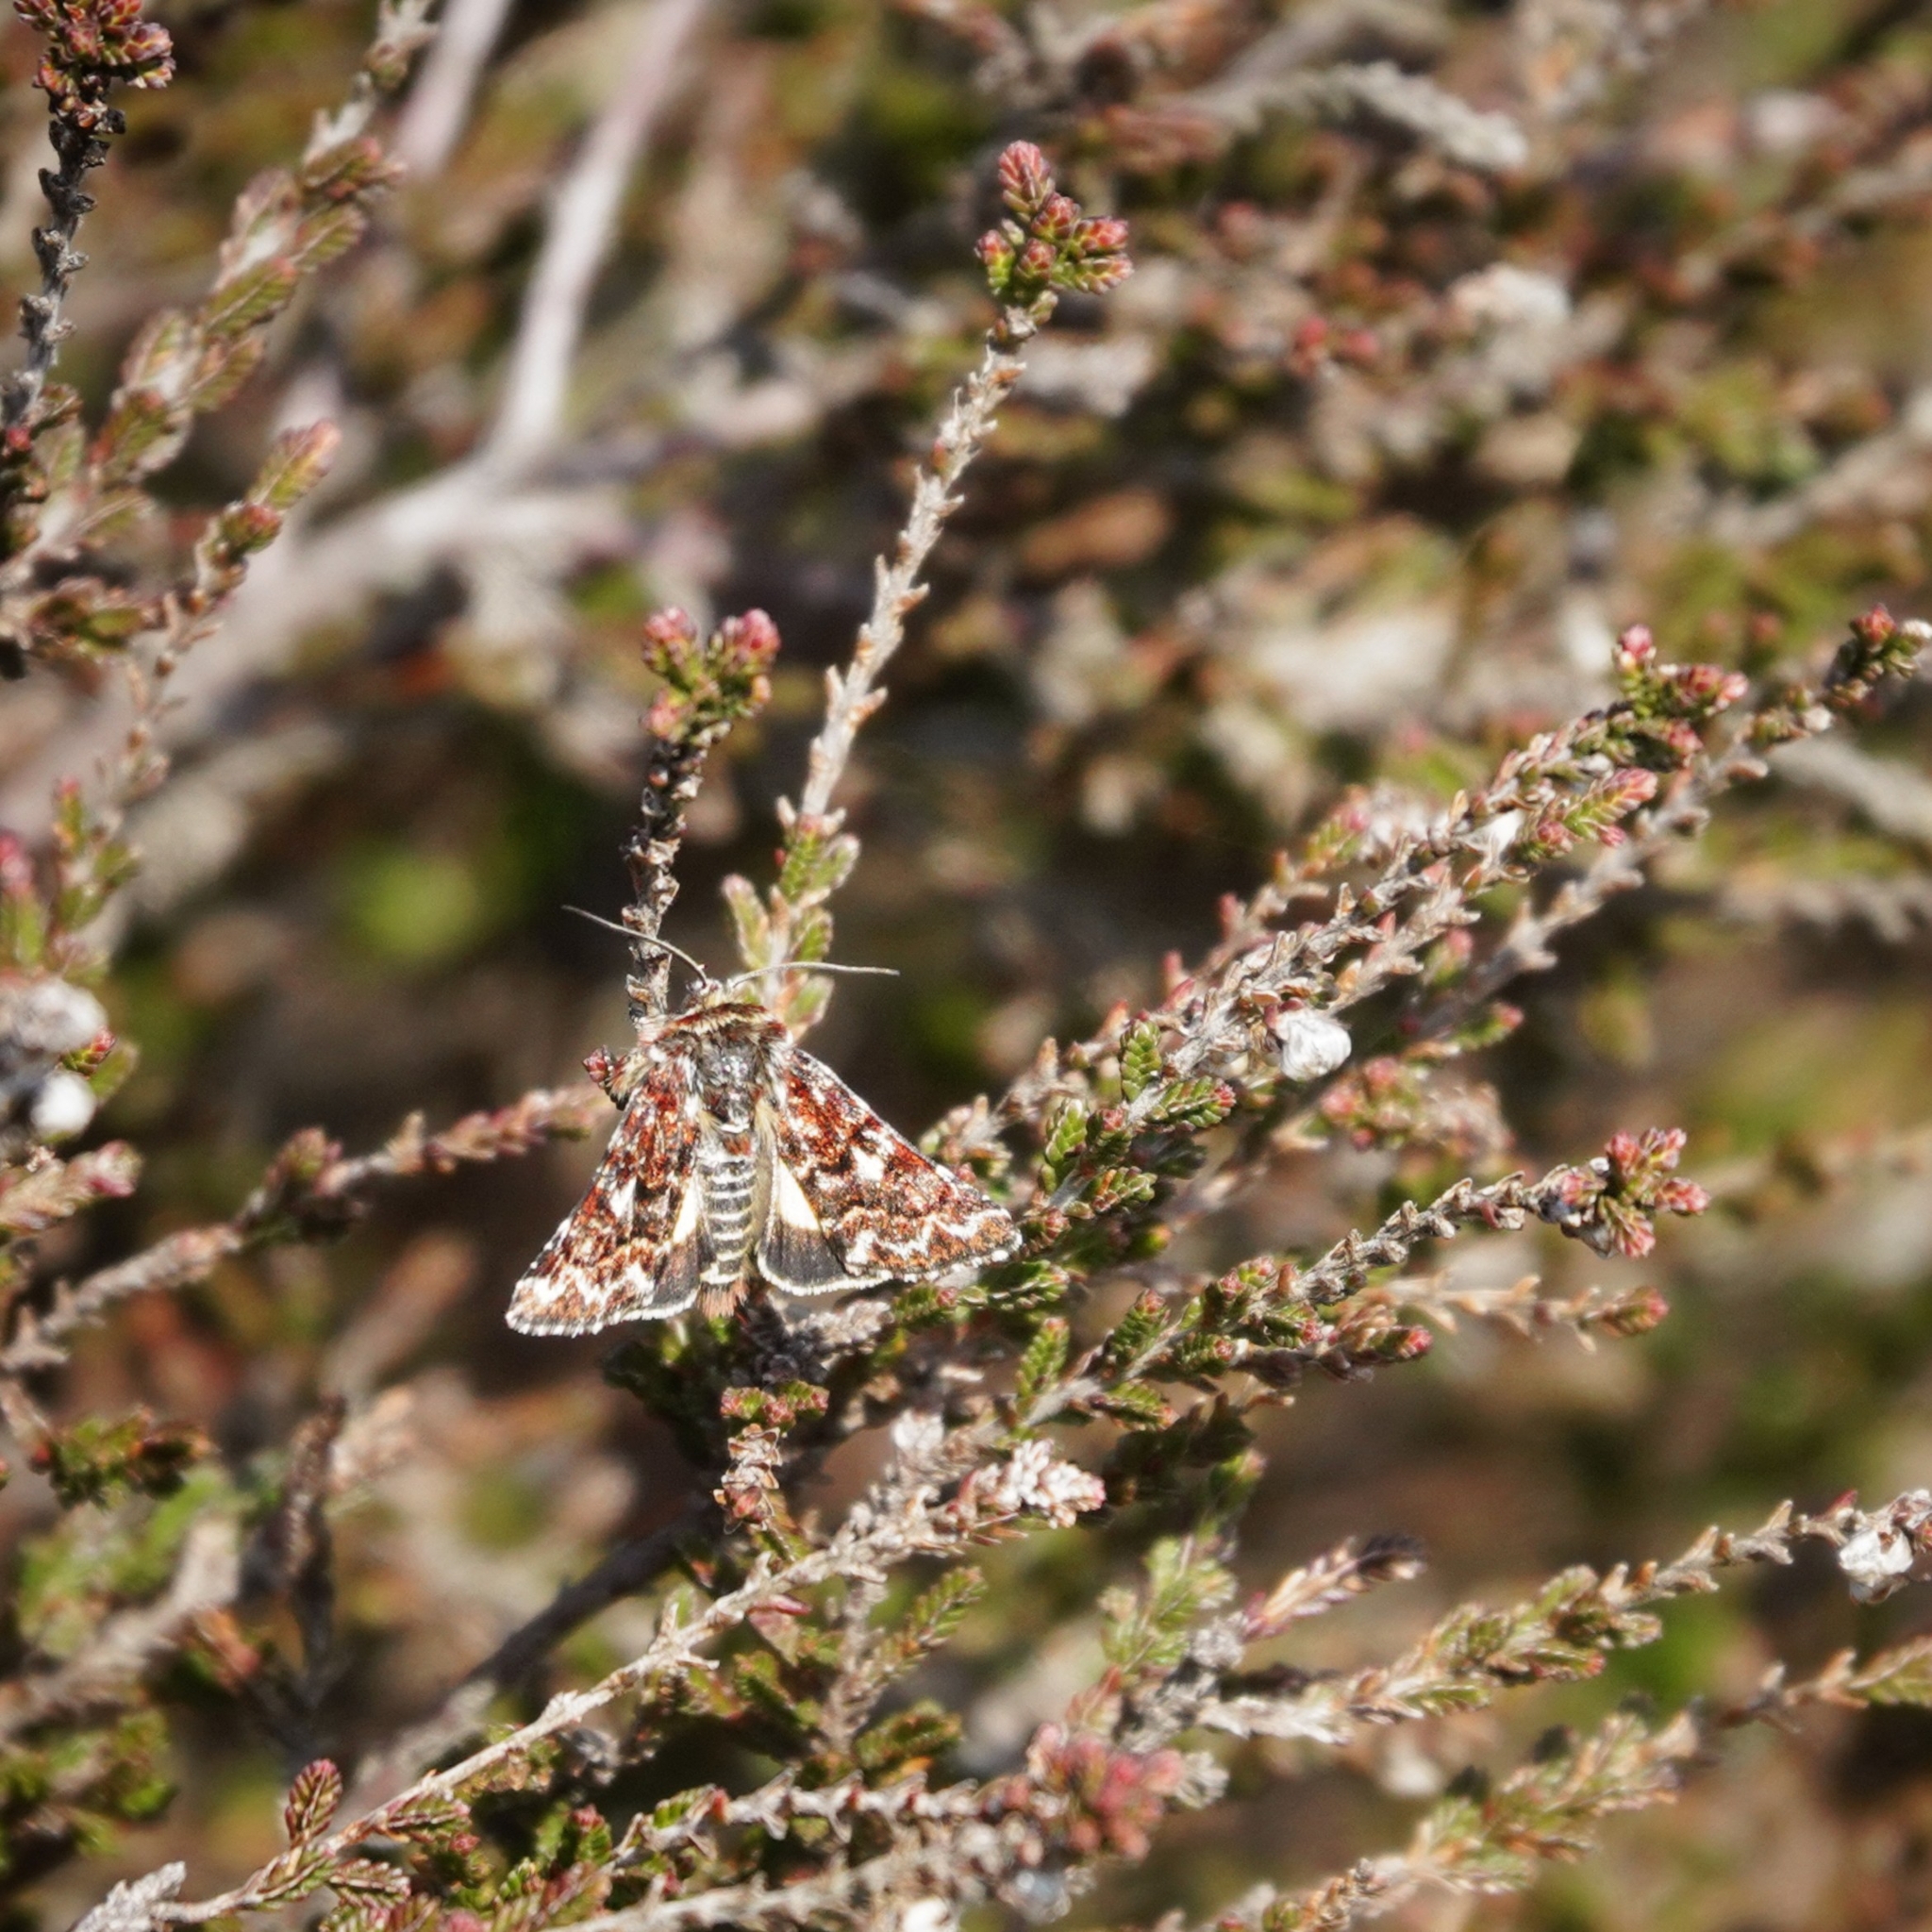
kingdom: Animalia
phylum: Arthropoda
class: Insecta
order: Lepidoptera
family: Noctuidae
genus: Anarta
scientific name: Anarta myrtilli
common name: Beautiful yellow underwing
